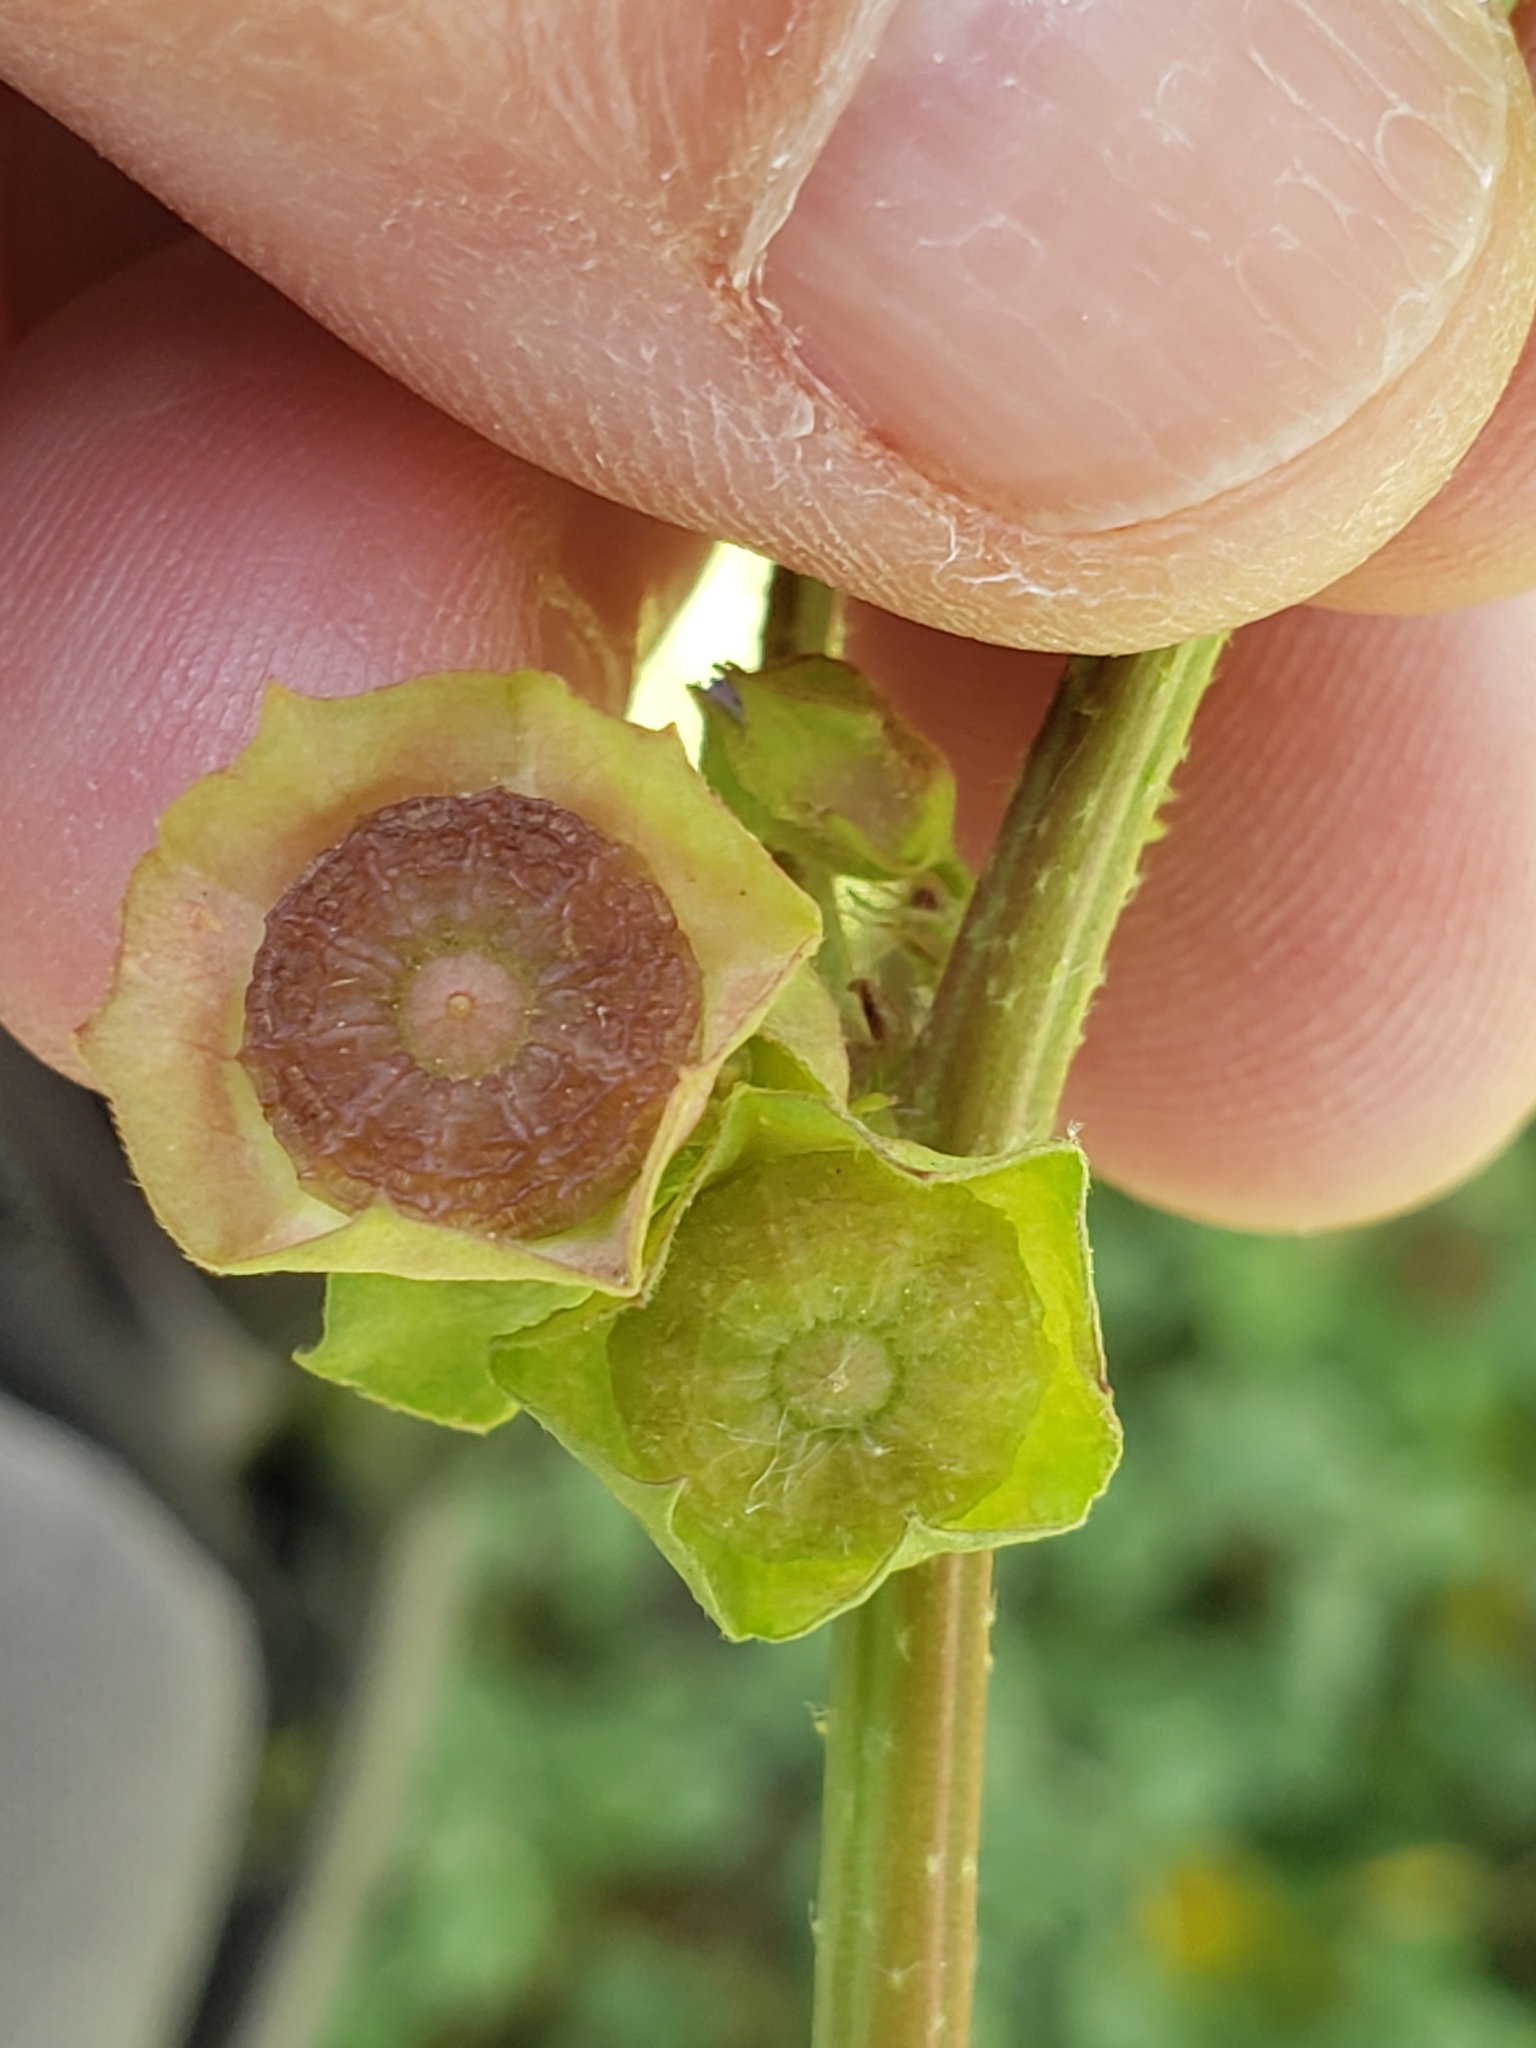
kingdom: Plantae
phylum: Tracheophyta
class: Magnoliopsida
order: Malvales
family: Malvaceae
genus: Malva
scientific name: Malva parviflora
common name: Least mallow
